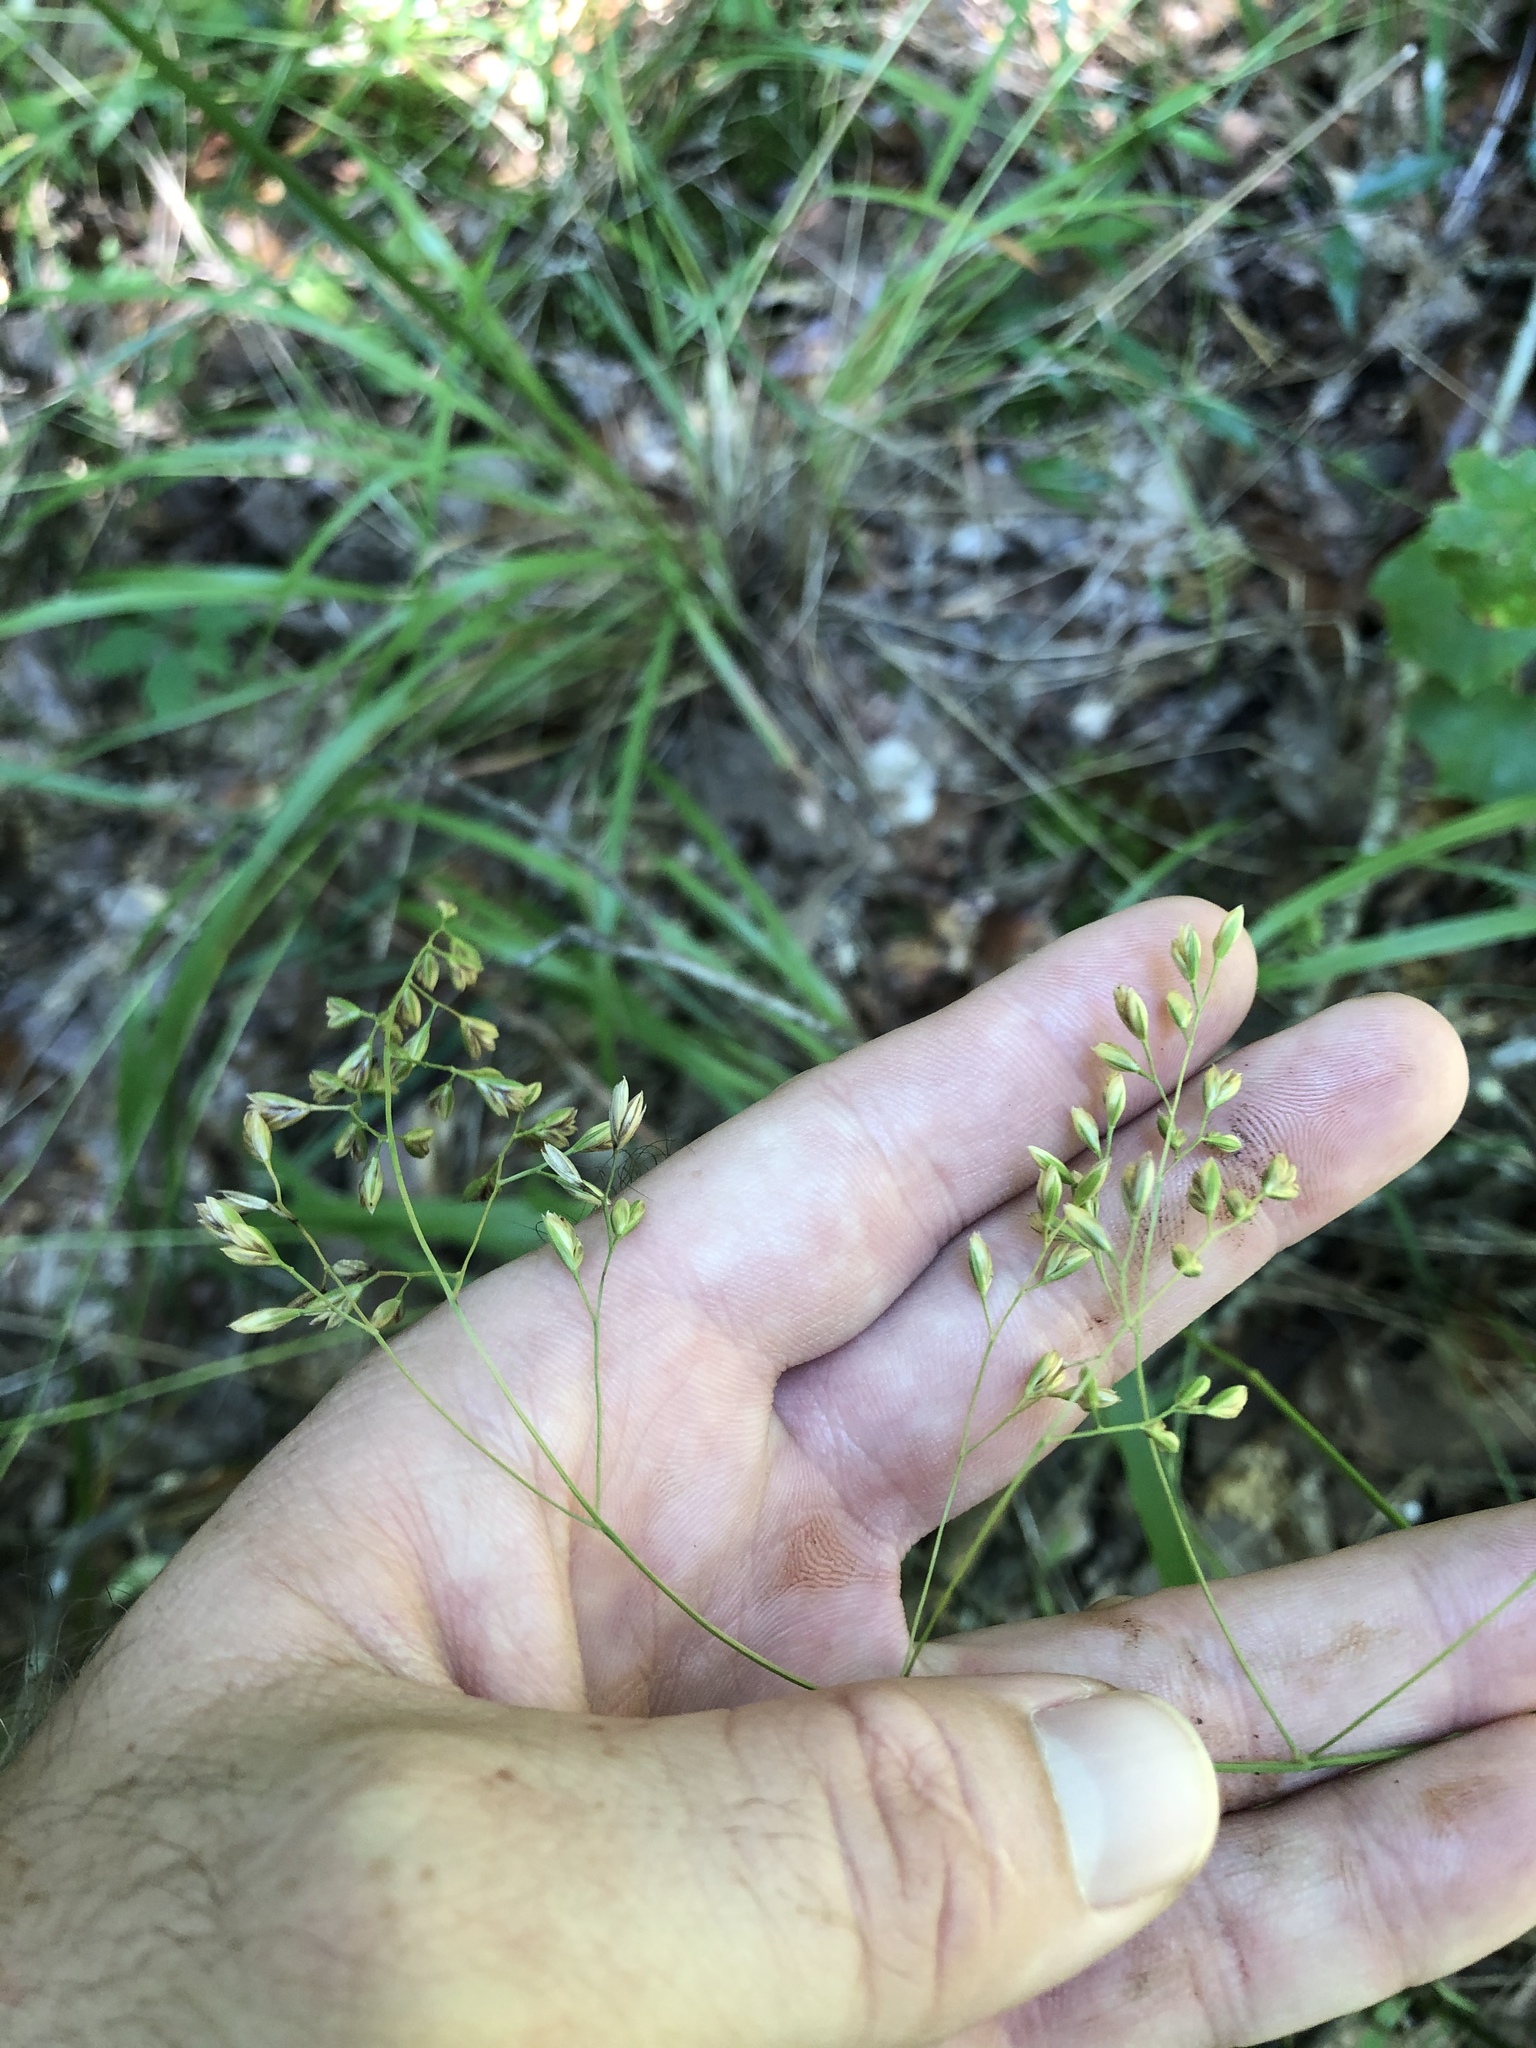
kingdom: Plantae
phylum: Tracheophyta
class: Liliopsida
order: Poales
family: Poaceae
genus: Festuca
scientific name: Festuca paradoxa
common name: Cluster fescue
